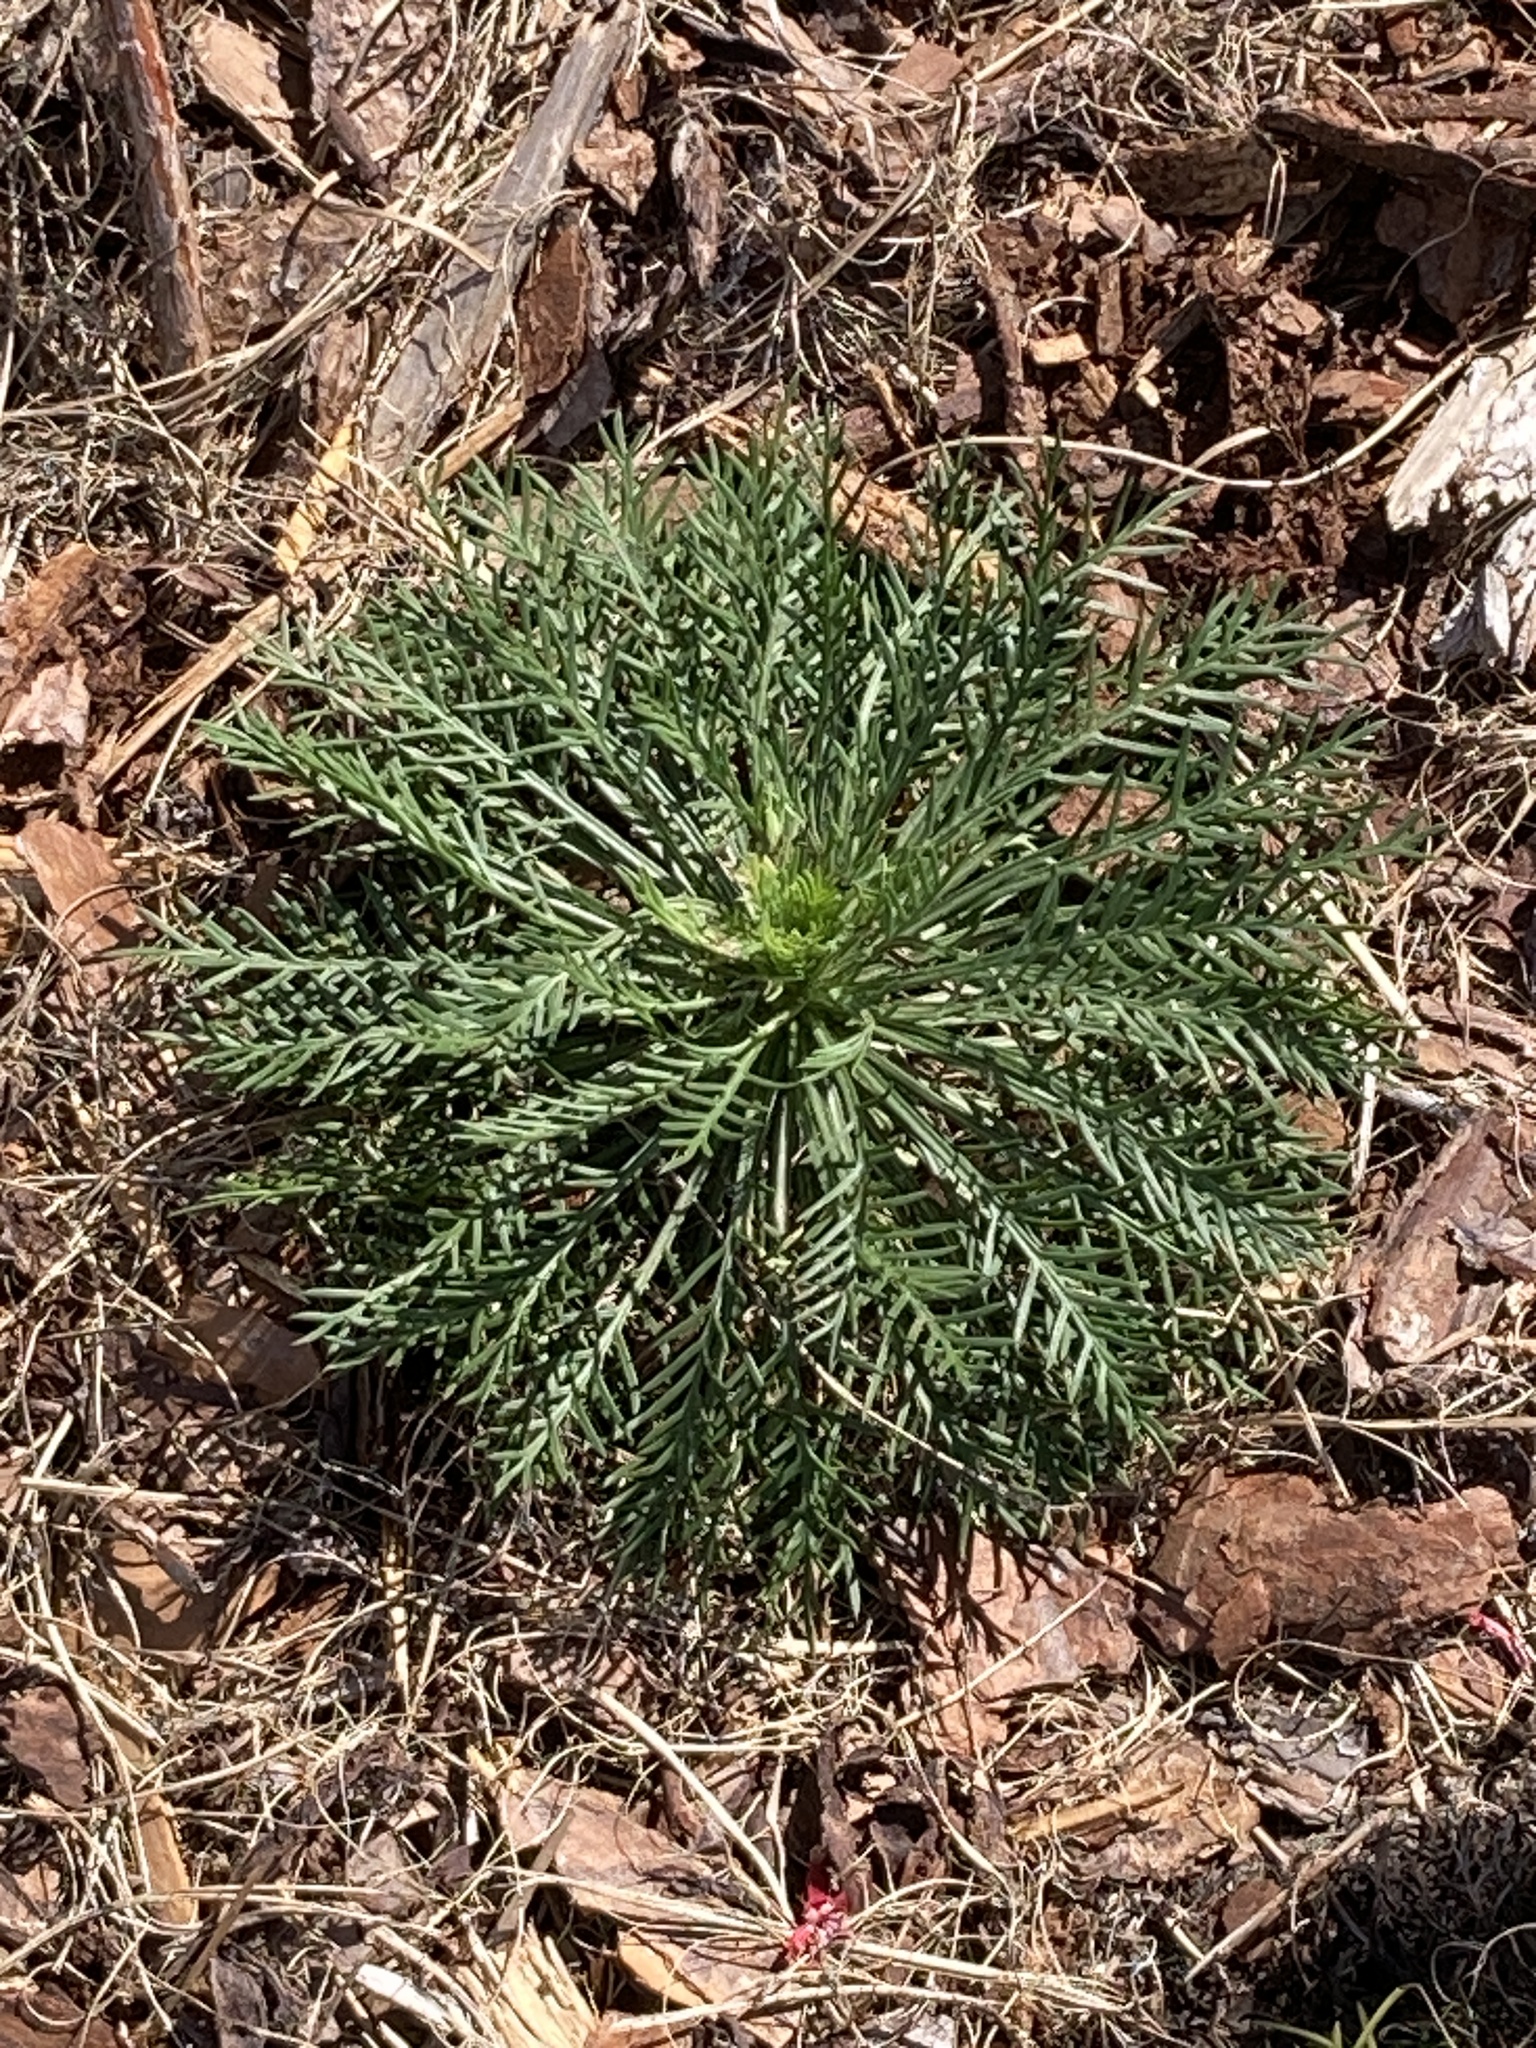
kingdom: Plantae
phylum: Tracheophyta
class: Magnoliopsida
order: Ericales
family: Polemoniaceae
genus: Ipomopsis
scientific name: Ipomopsis rubra
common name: Skyrocket
